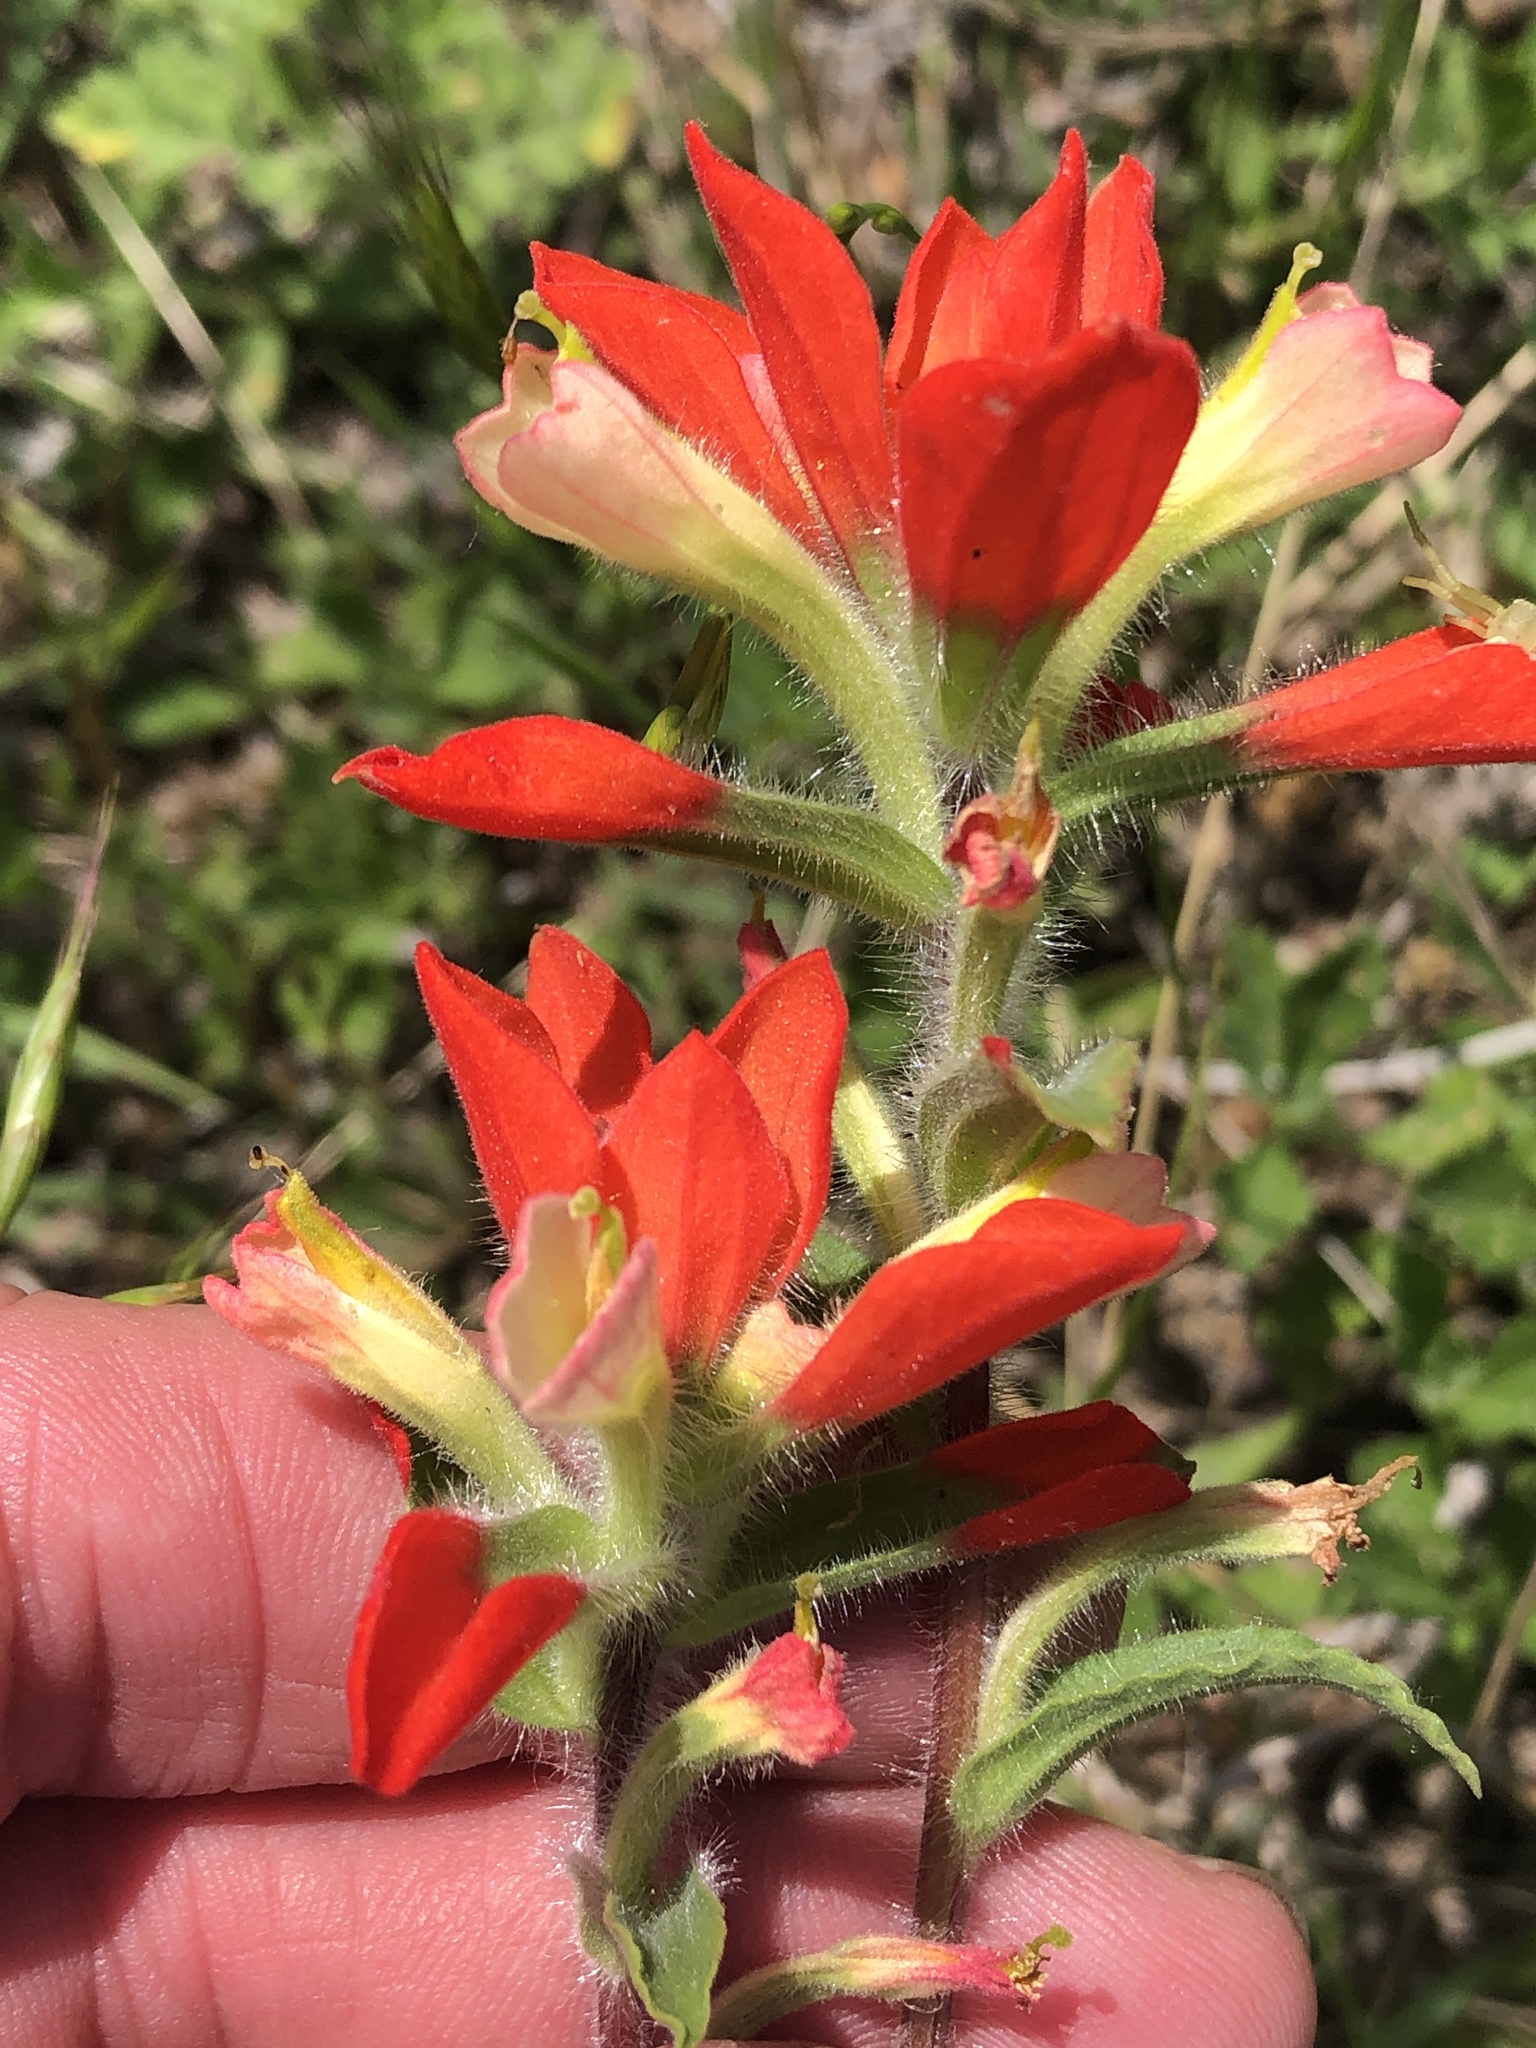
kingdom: Plantae
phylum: Tracheophyta
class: Magnoliopsida
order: Lamiales
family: Orobanchaceae
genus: Castilleja
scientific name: Castilleja indivisa
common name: Texas paintbrush
